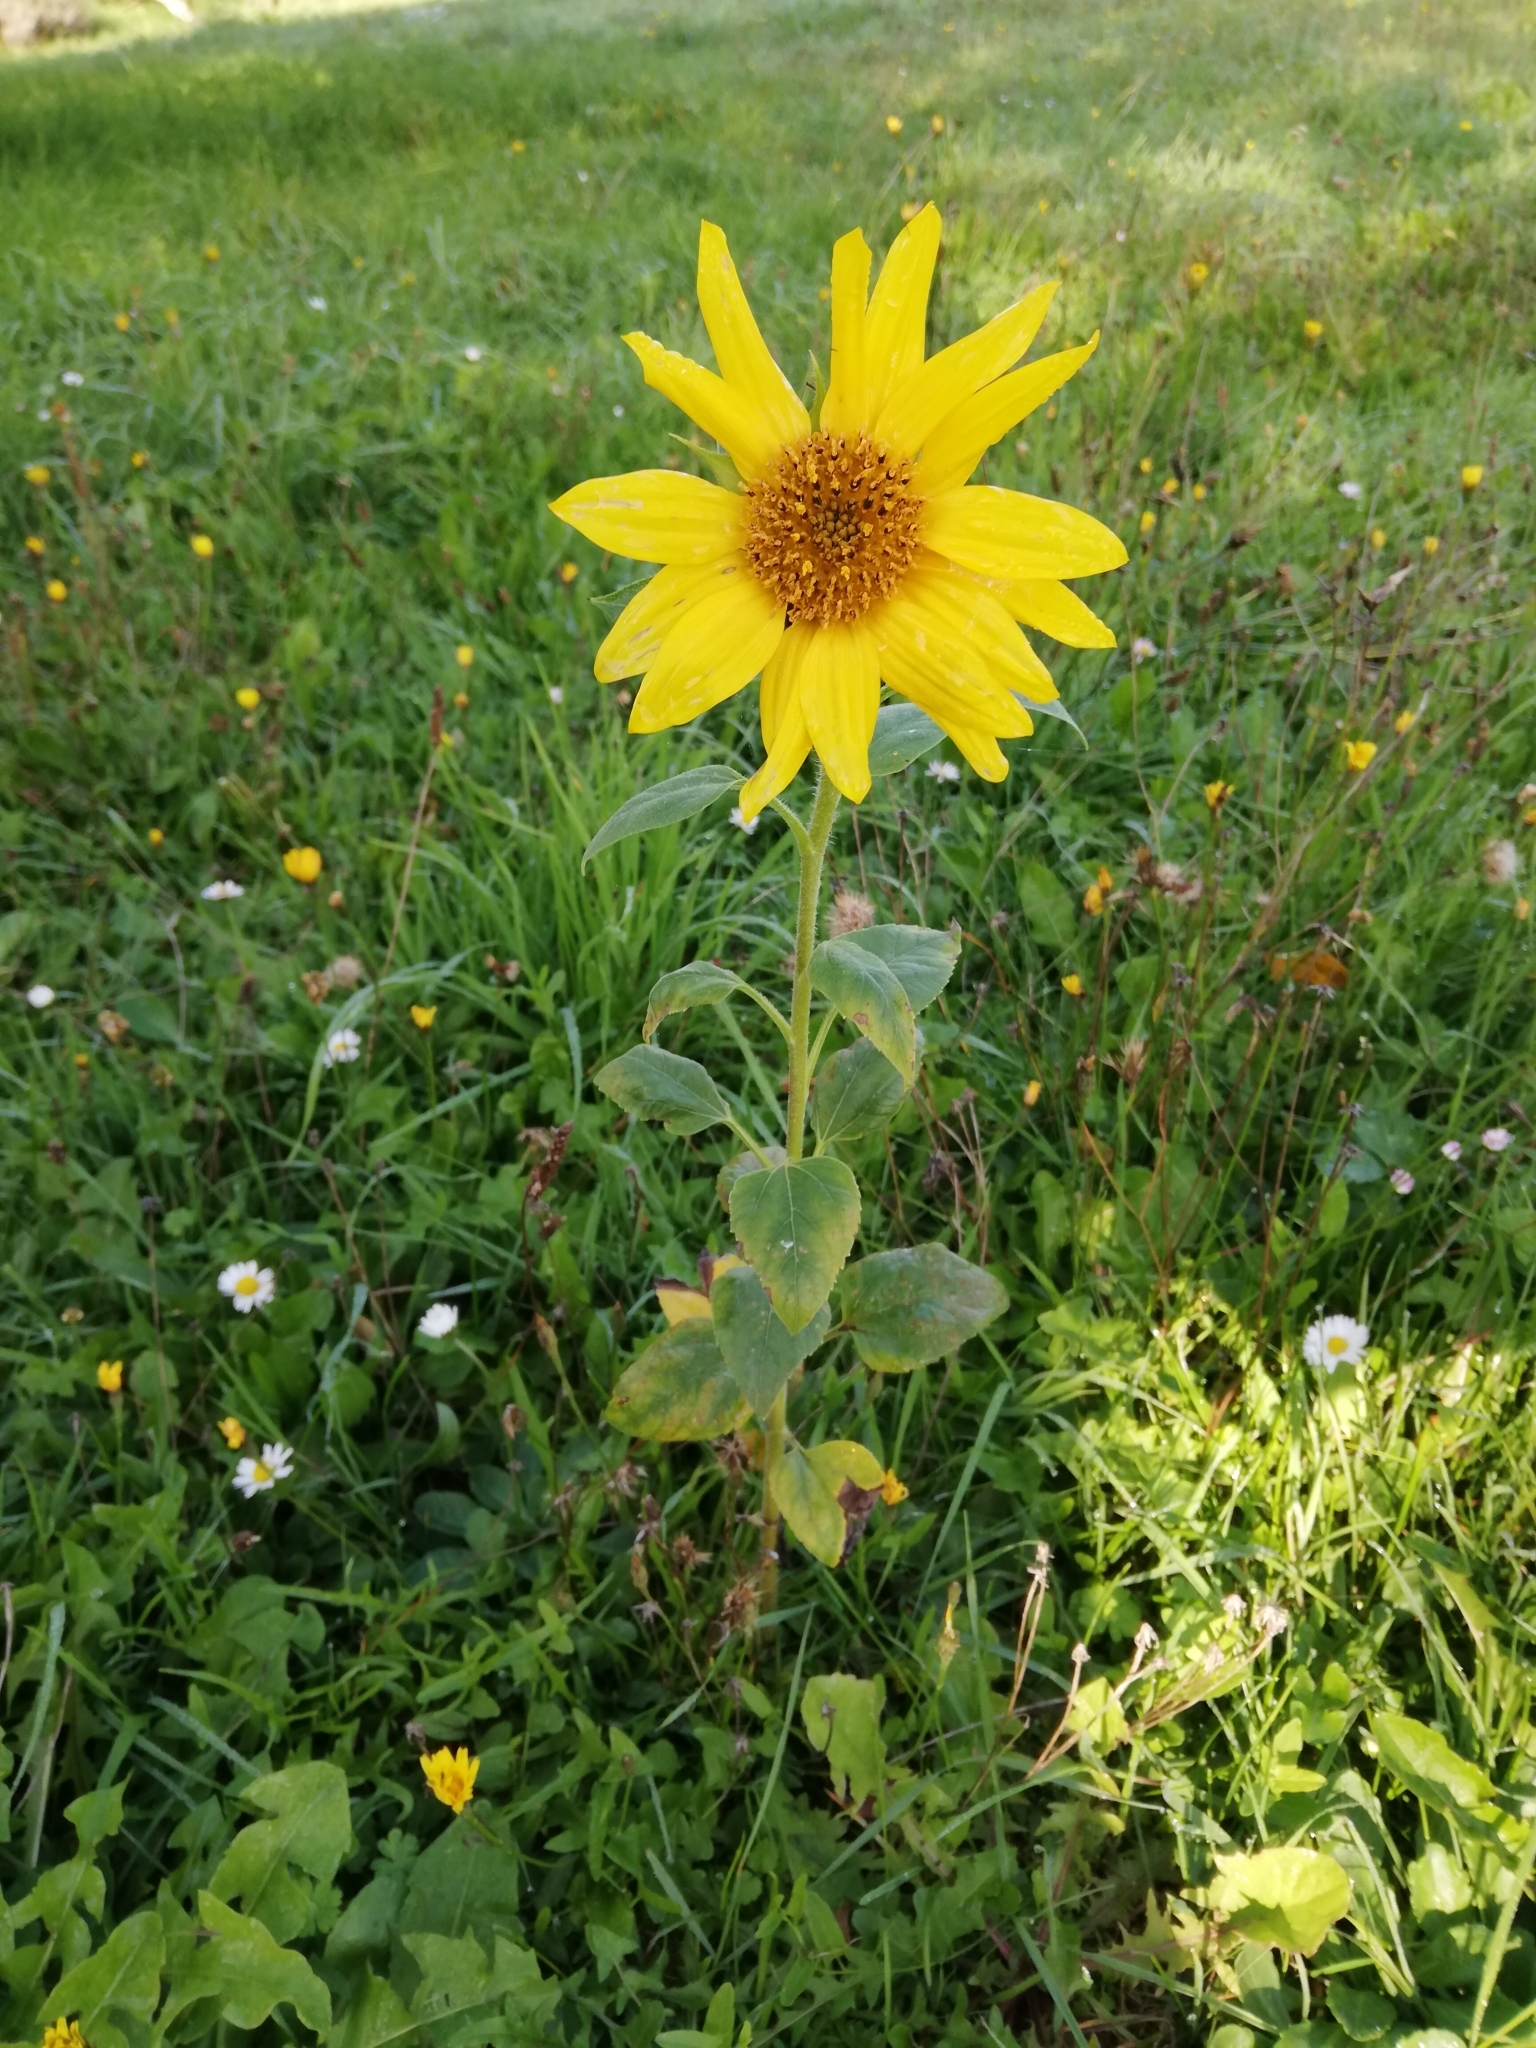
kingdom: Plantae
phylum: Tracheophyta
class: Magnoliopsida
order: Asterales
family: Asteraceae
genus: Helianthus
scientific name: Helianthus annuus
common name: Sunflower
